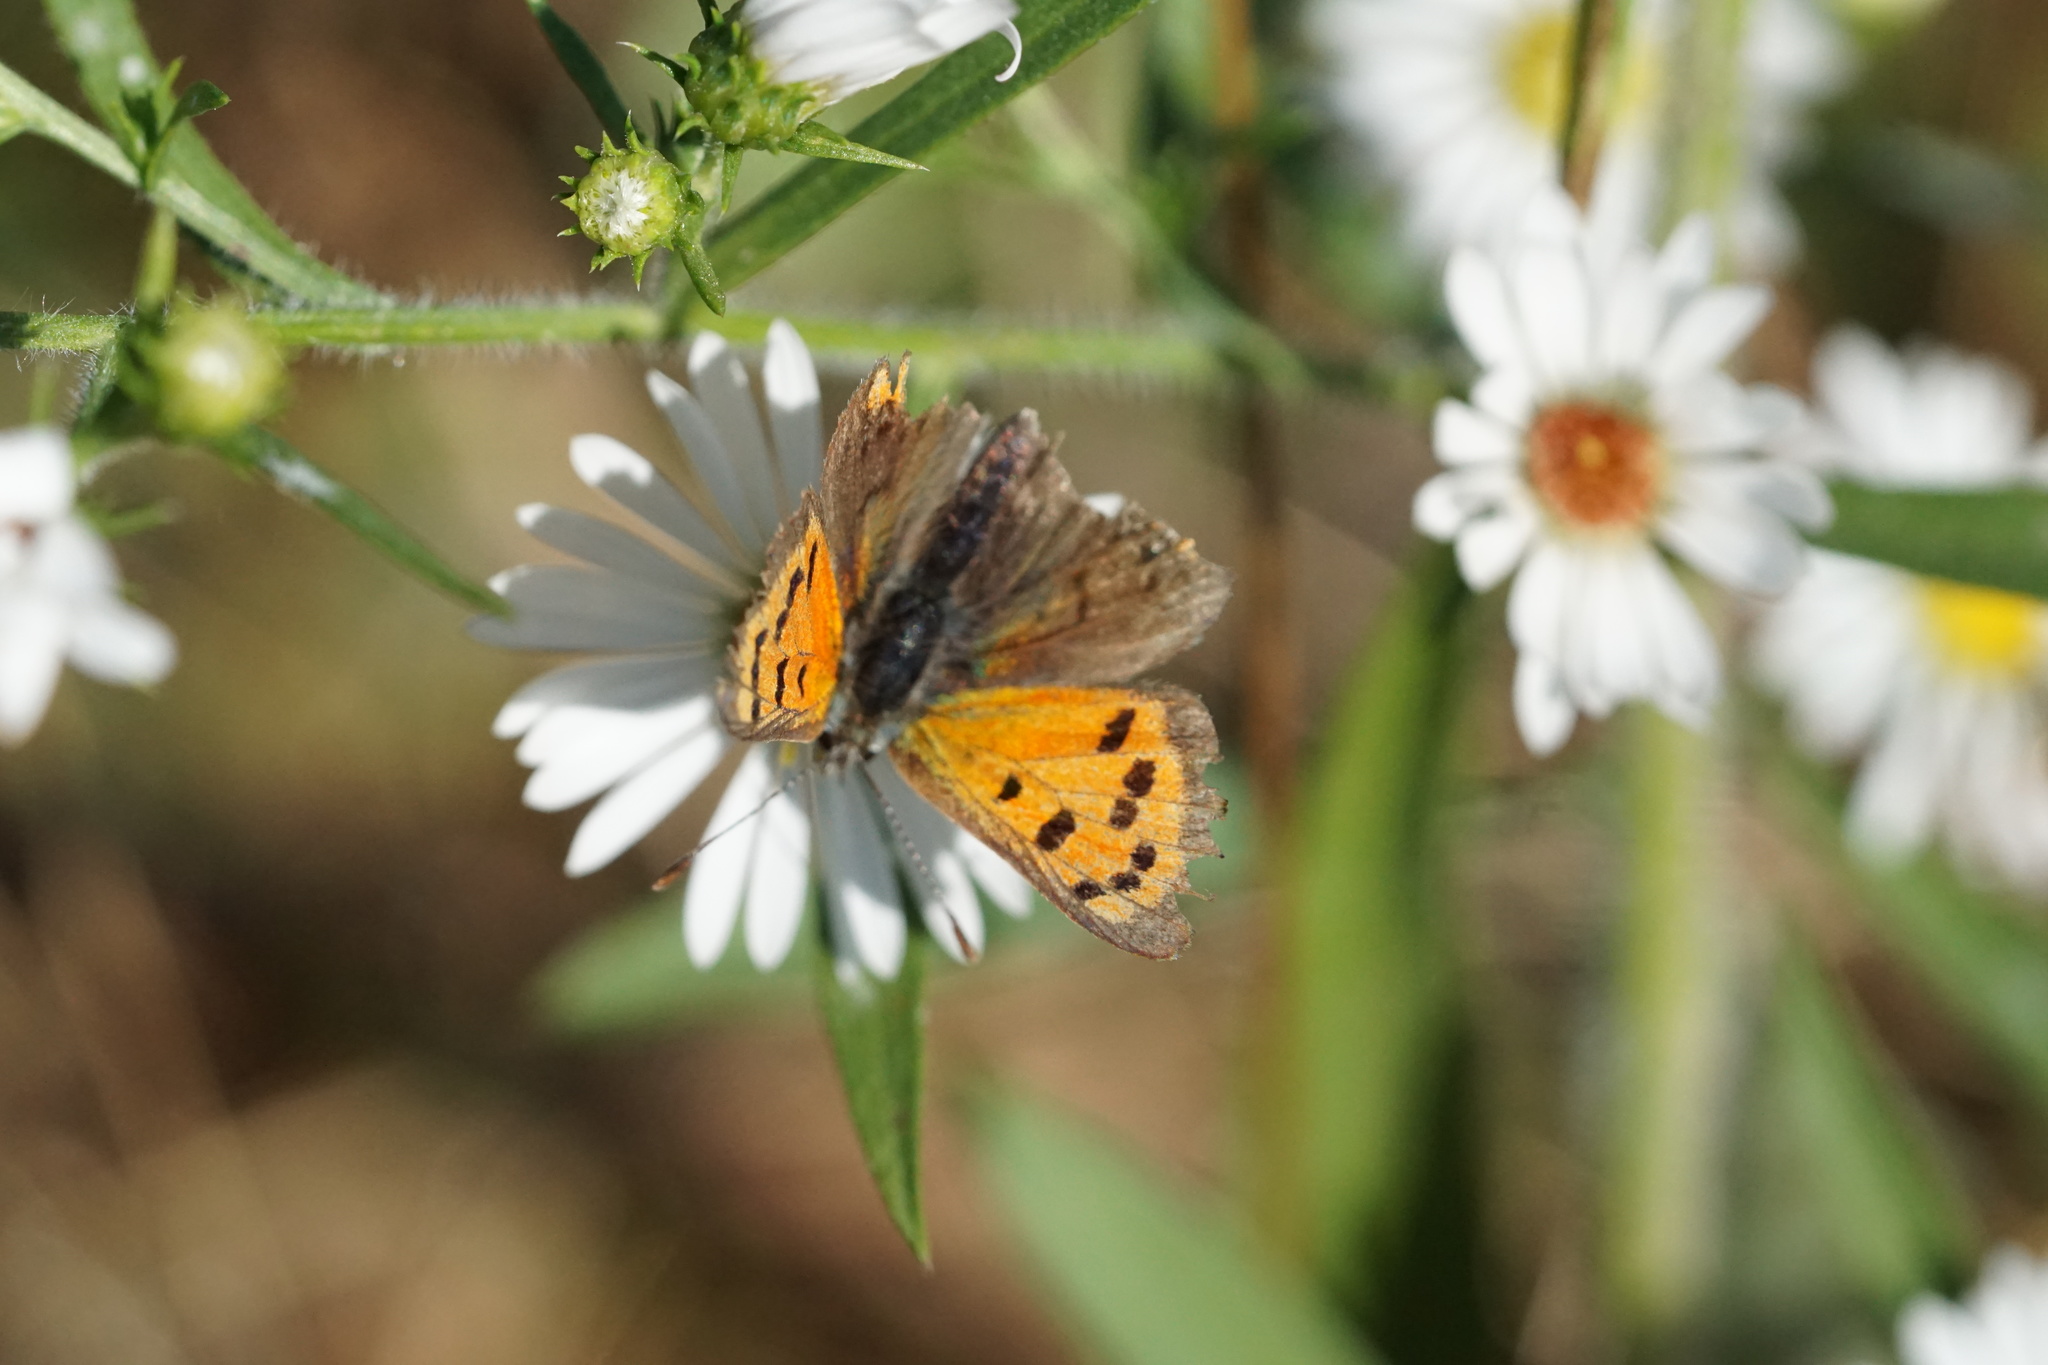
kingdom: Animalia
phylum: Arthropoda
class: Insecta
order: Lepidoptera
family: Lycaenidae
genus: Lycaena
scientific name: Lycaena hypophlaeas
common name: American copper
